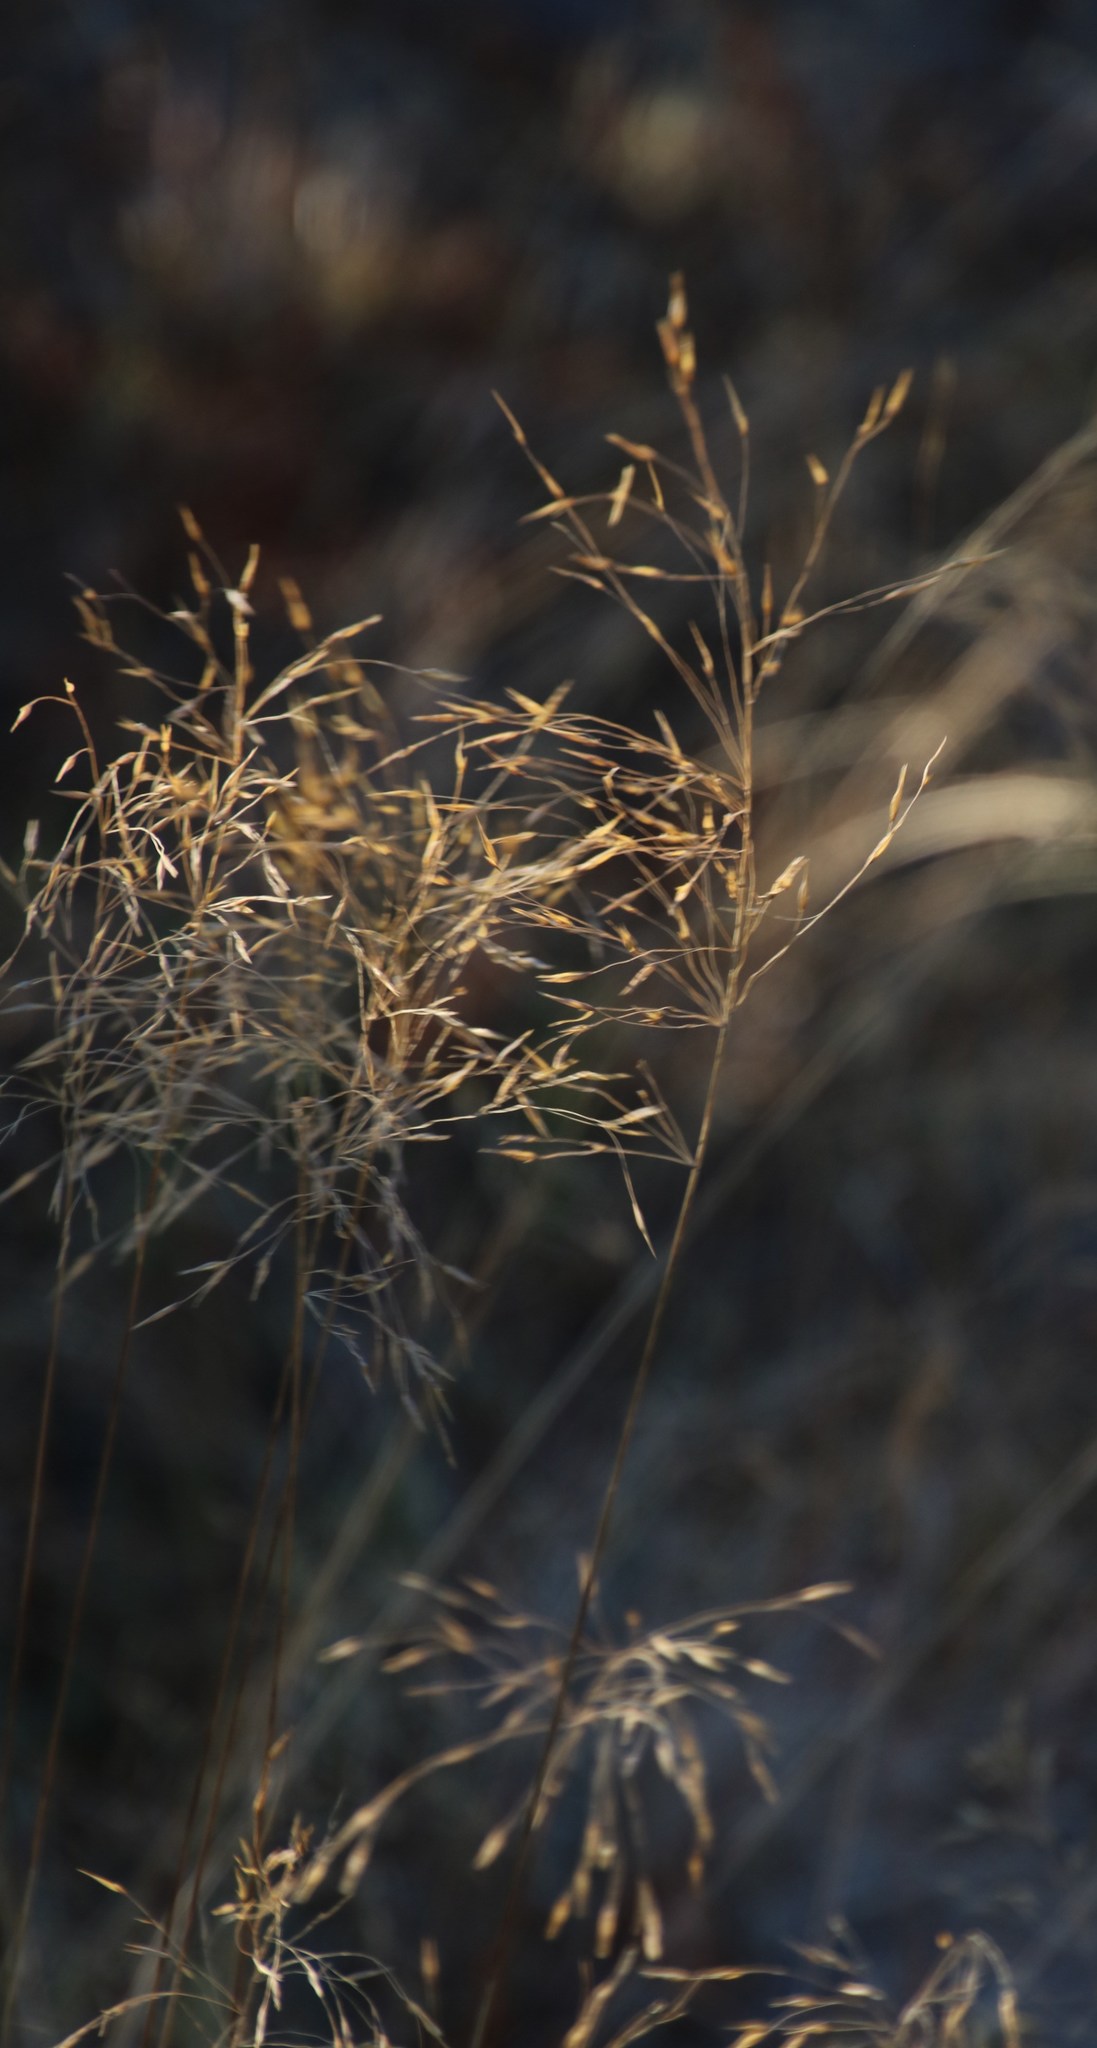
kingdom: Plantae
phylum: Tracheophyta
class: Liliopsida
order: Poales
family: Poaceae
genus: Loudetia
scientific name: Loudetia simplex
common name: Common russet grass
